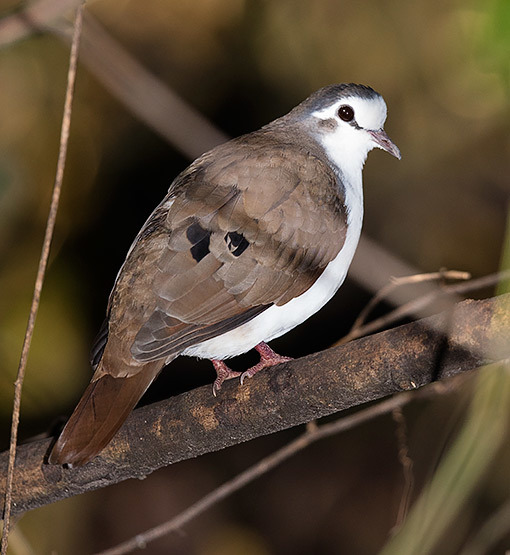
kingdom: Animalia
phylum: Chordata
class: Aves
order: Columbiformes
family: Columbidae
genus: Turtur
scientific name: Turtur tympanistria
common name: Tambourine dove
